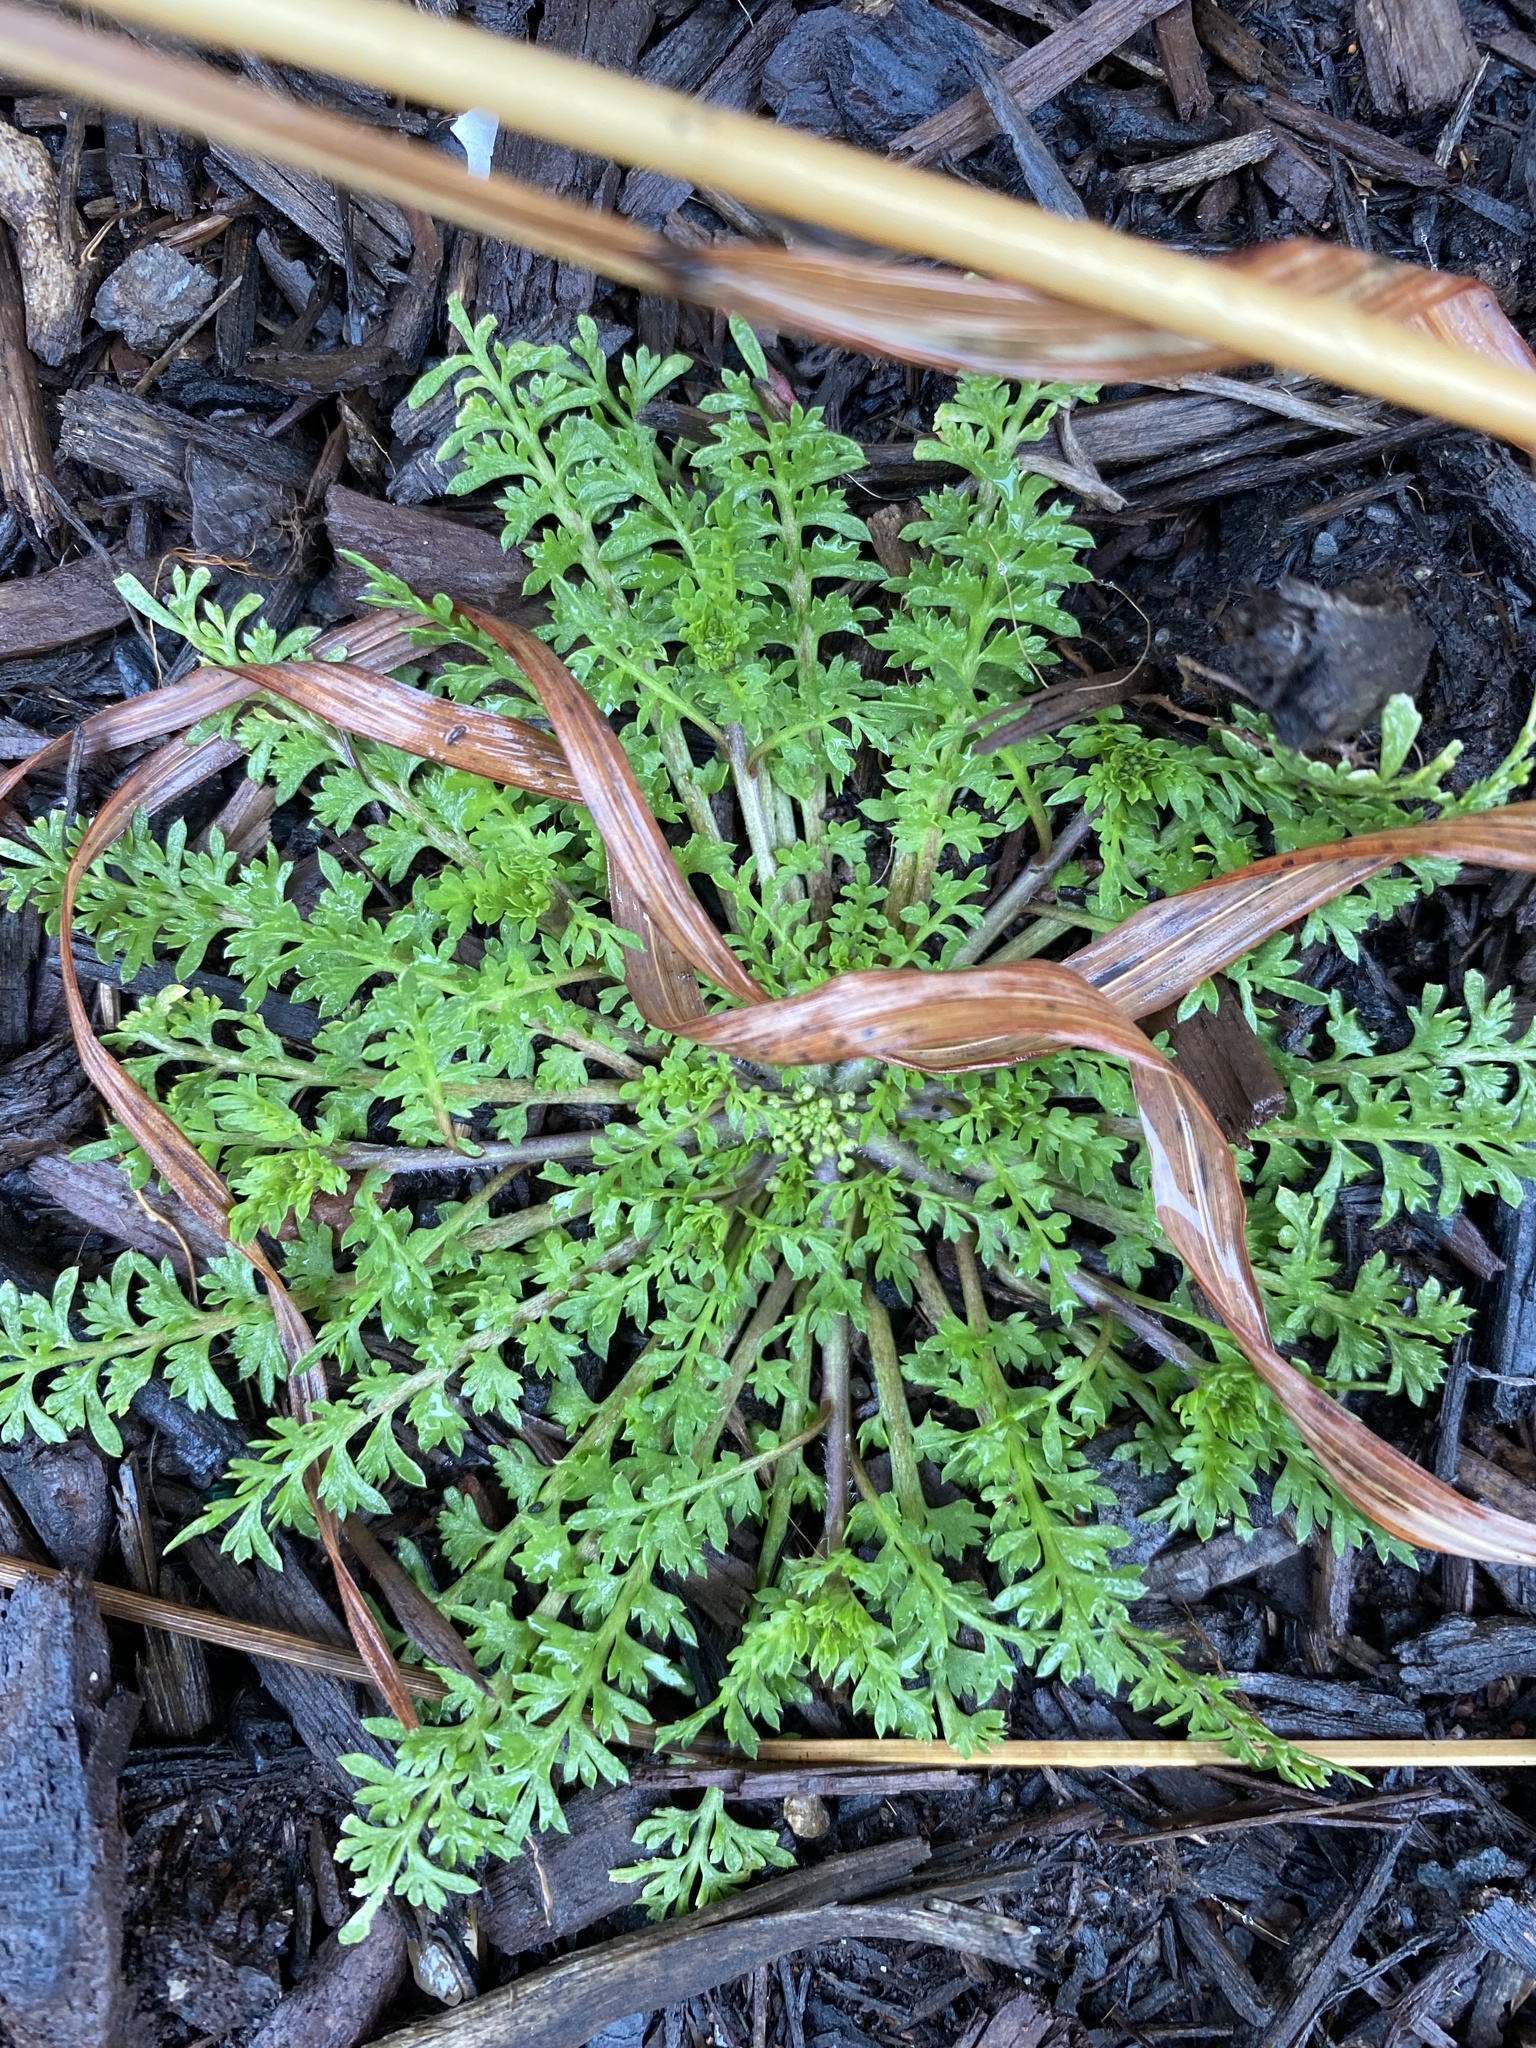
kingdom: Plantae
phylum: Tracheophyta
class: Magnoliopsida
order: Brassicales
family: Brassicaceae
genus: Lepidium
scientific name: Lepidium didymum
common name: Lesser swinecress
